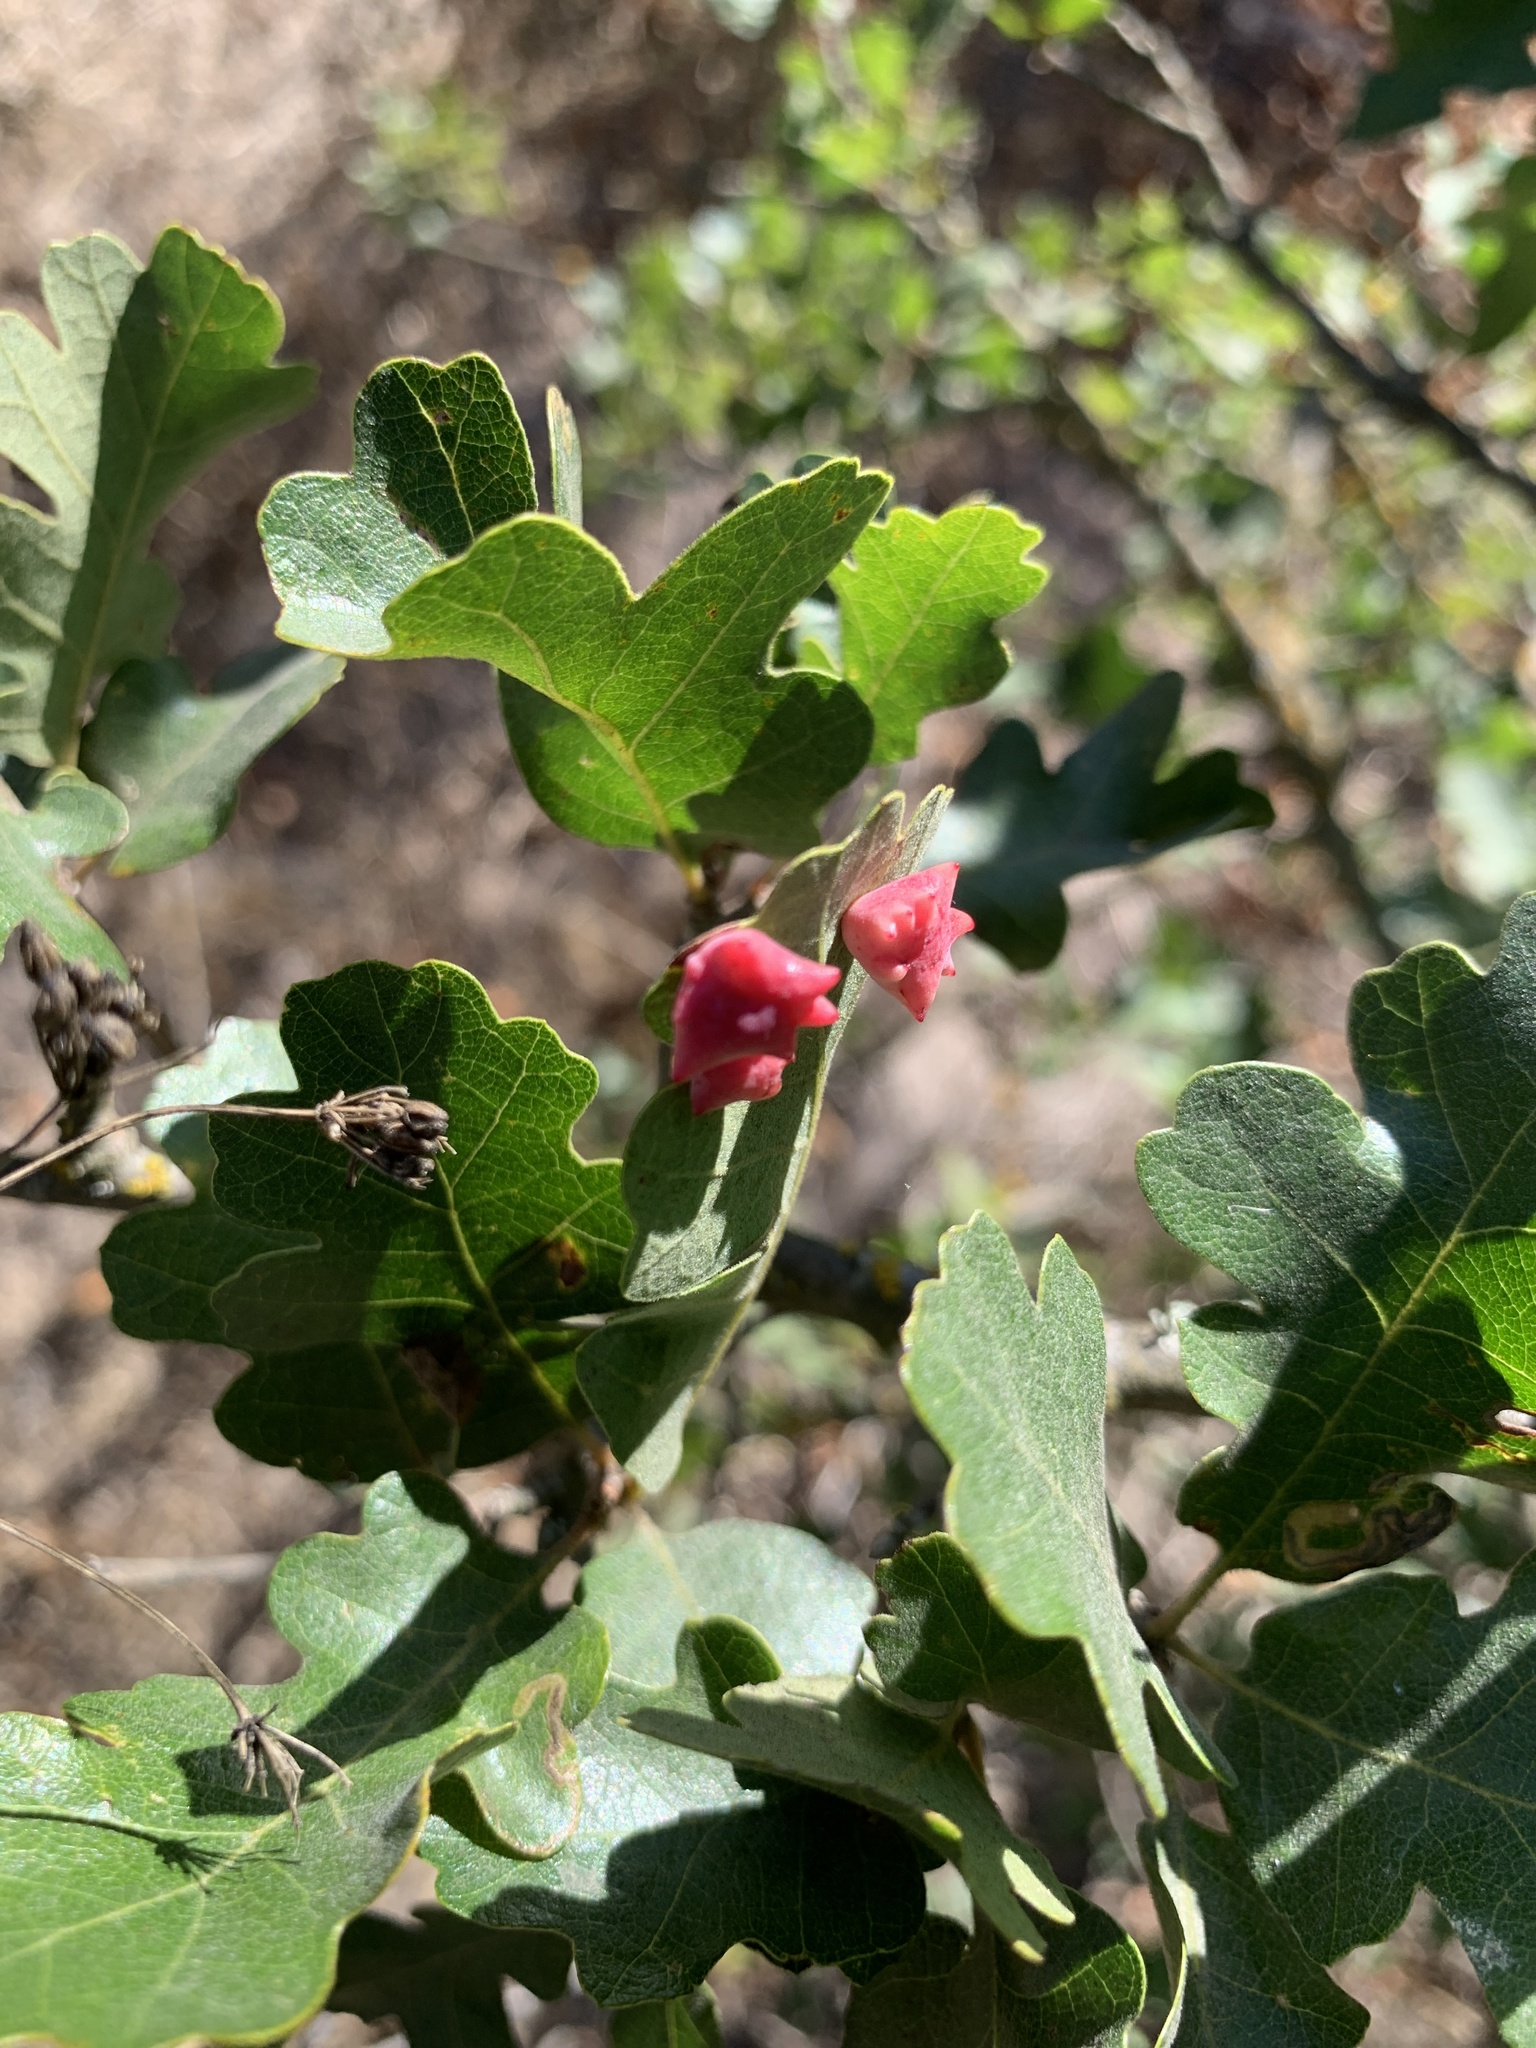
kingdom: Animalia
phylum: Arthropoda
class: Insecta
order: Hymenoptera
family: Cynipidae
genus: Cynips
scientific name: Cynips douglasi
